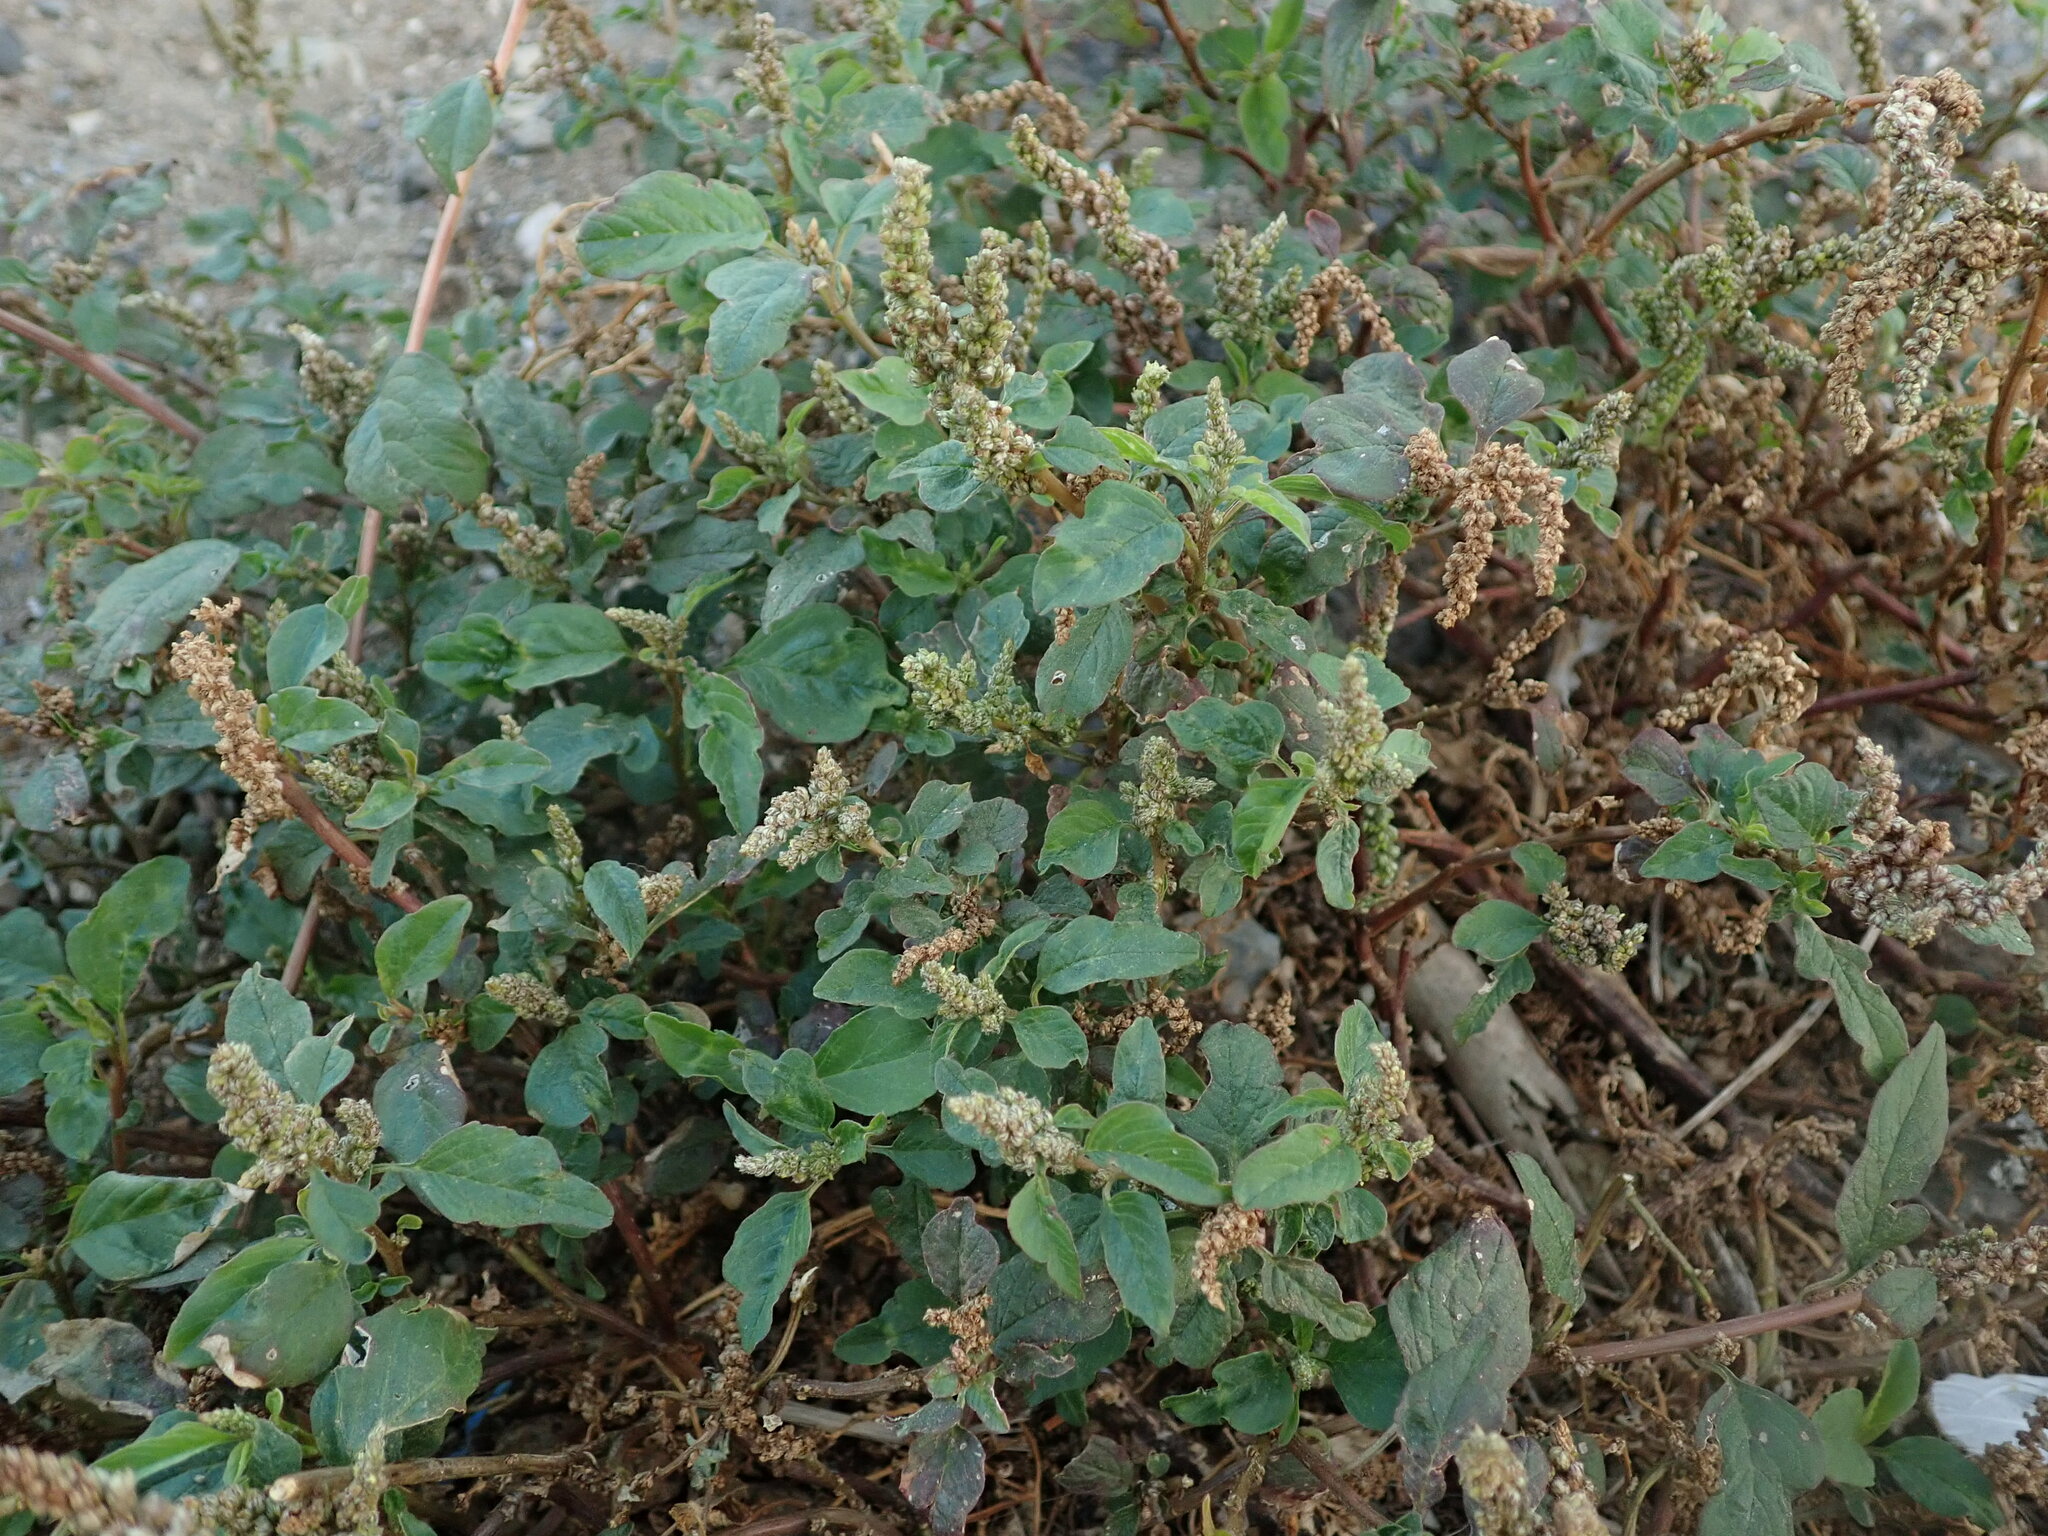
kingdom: Plantae
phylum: Tracheophyta
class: Magnoliopsida
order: Caryophyllales
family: Amaranthaceae
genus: Amaranthus
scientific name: Amaranthus deflexus
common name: Perennial pigweed
